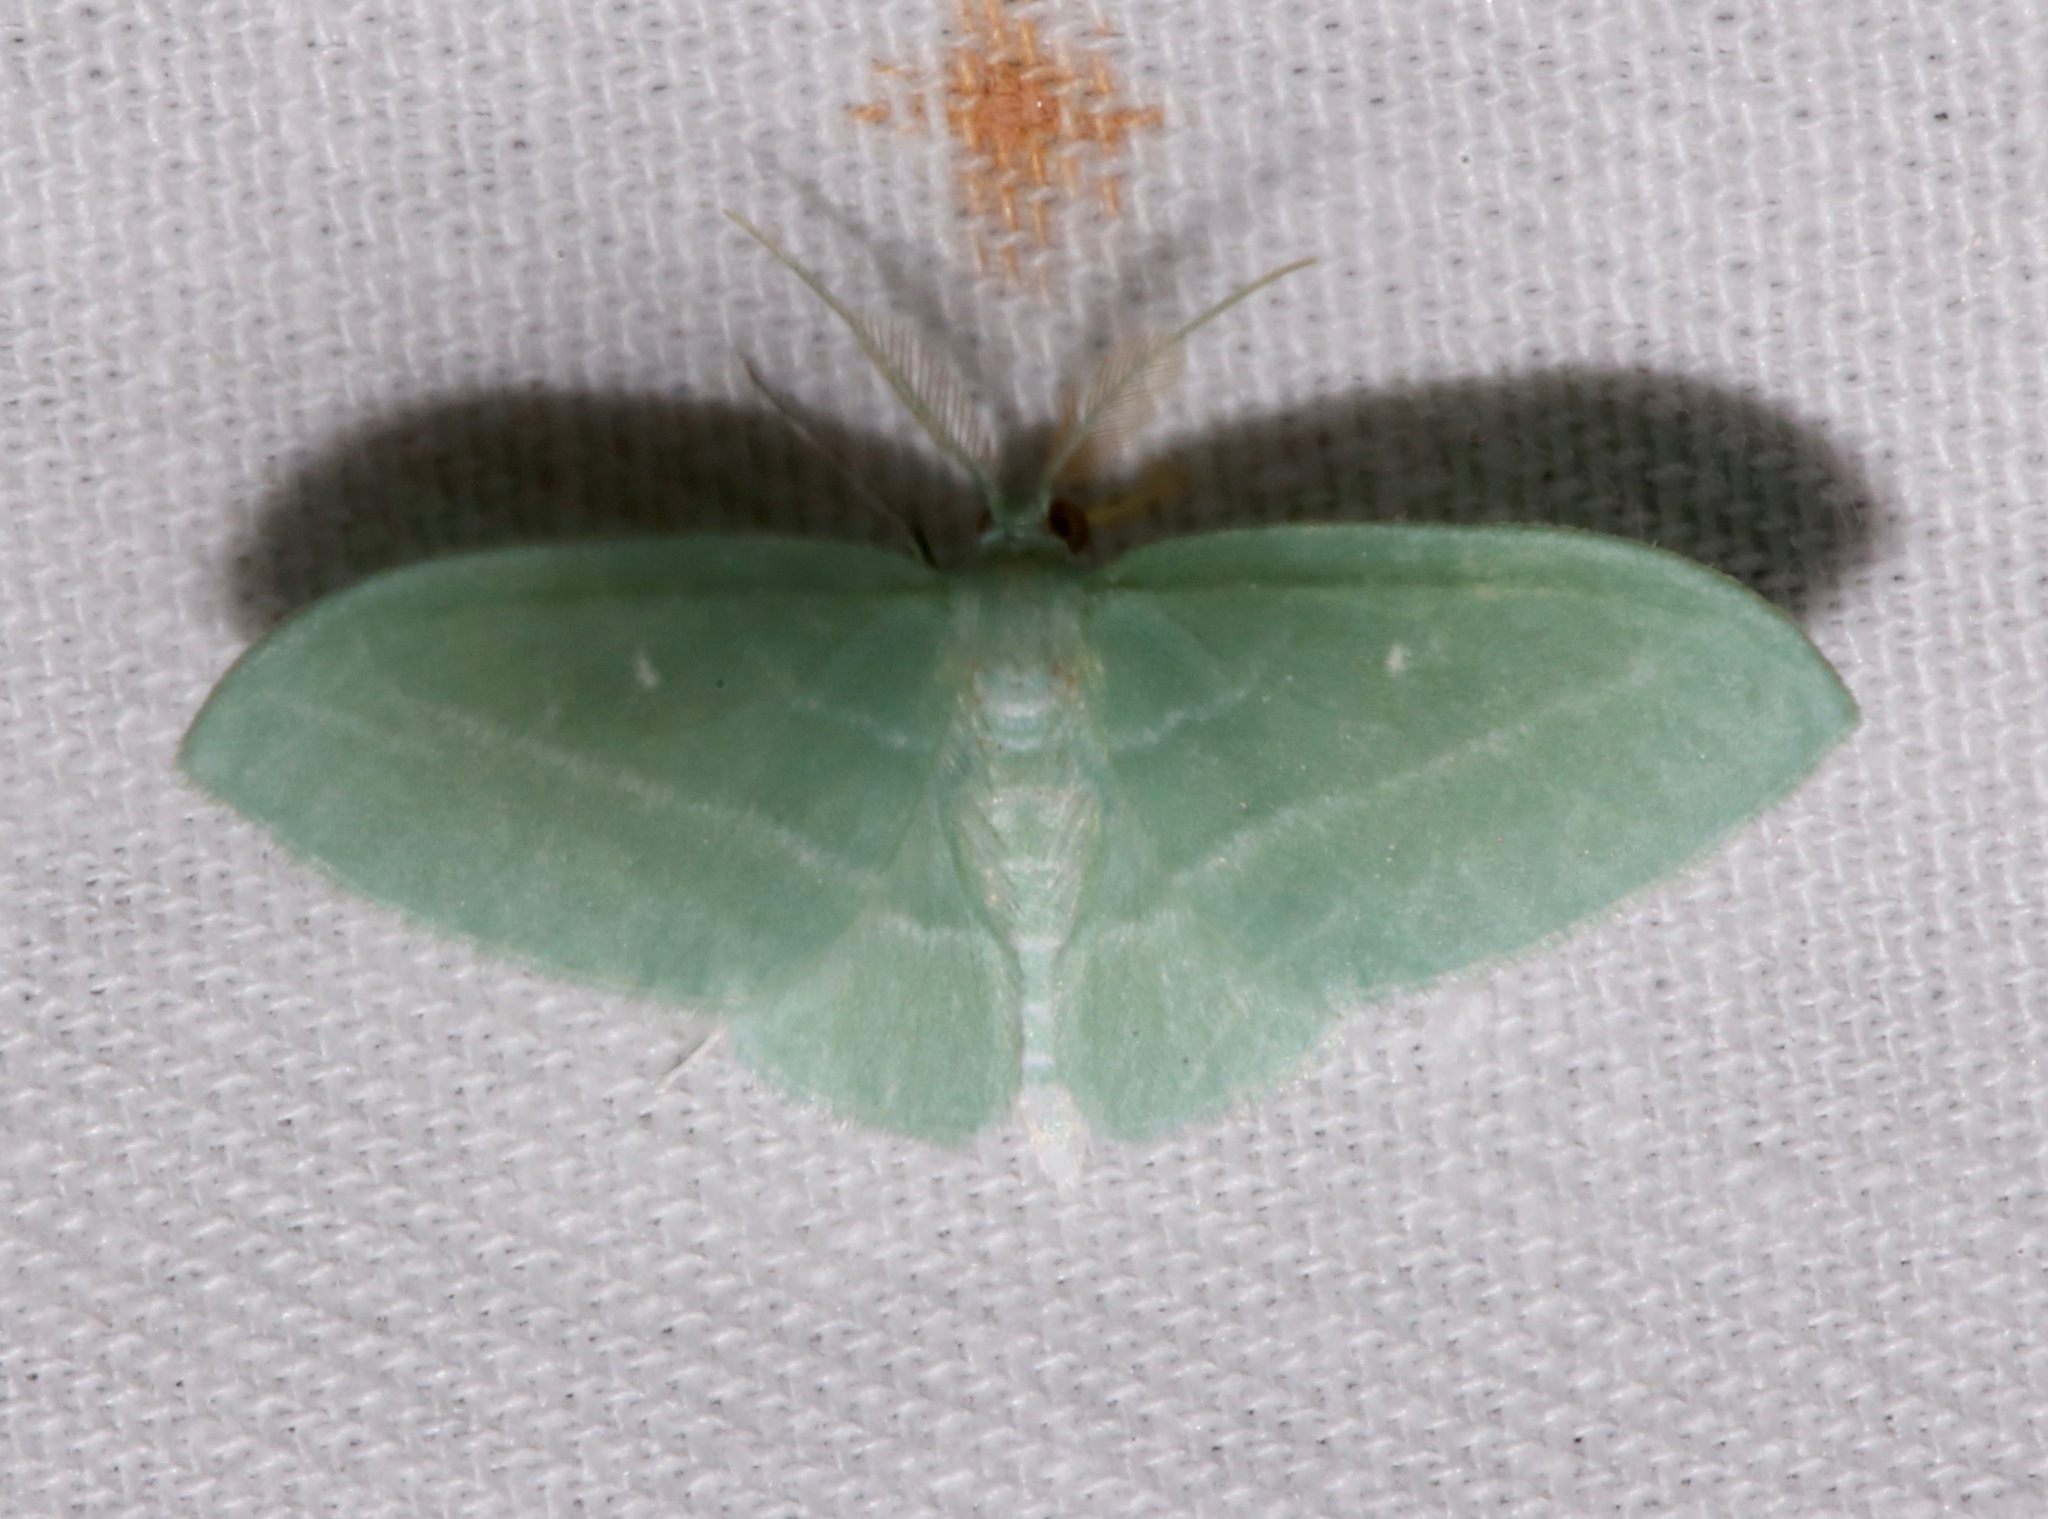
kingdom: Animalia
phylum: Arthropoda
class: Insecta
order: Lepidoptera
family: Geometridae
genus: Dyspteris
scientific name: Dyspteris abortivaria
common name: Bad-wing
